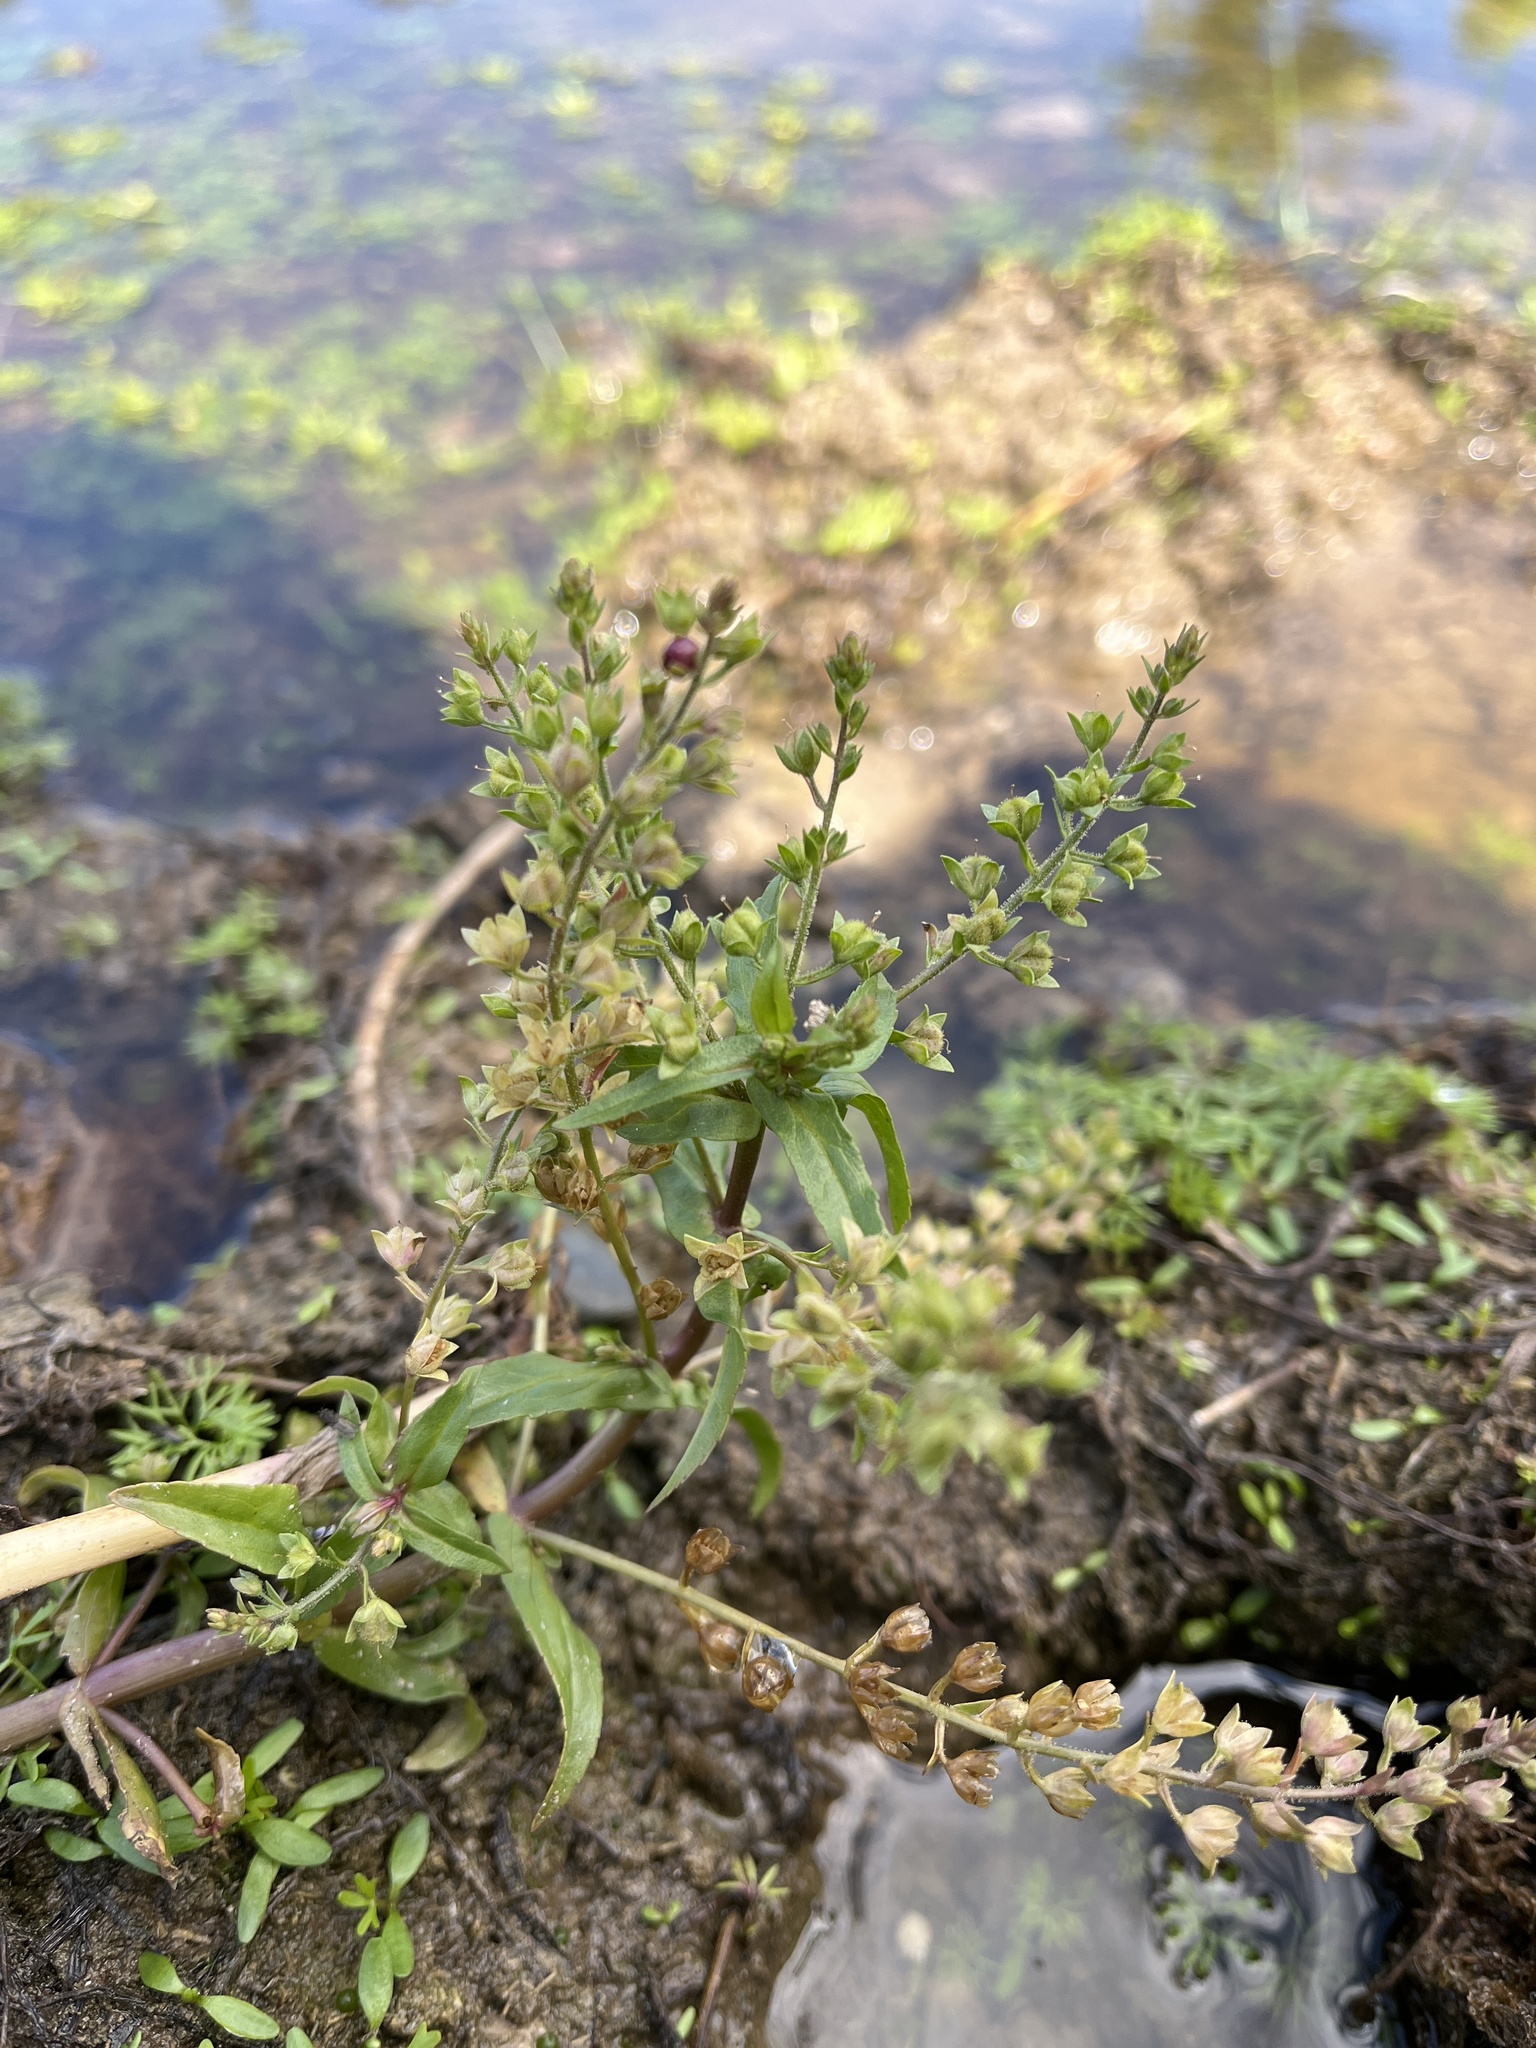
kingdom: Plantae
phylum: Tracheophyta
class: Magnoliopsida
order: Lamiales
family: Plantaginaceae
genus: Veronica
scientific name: Veronica catenata
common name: Pink water-speedwell
